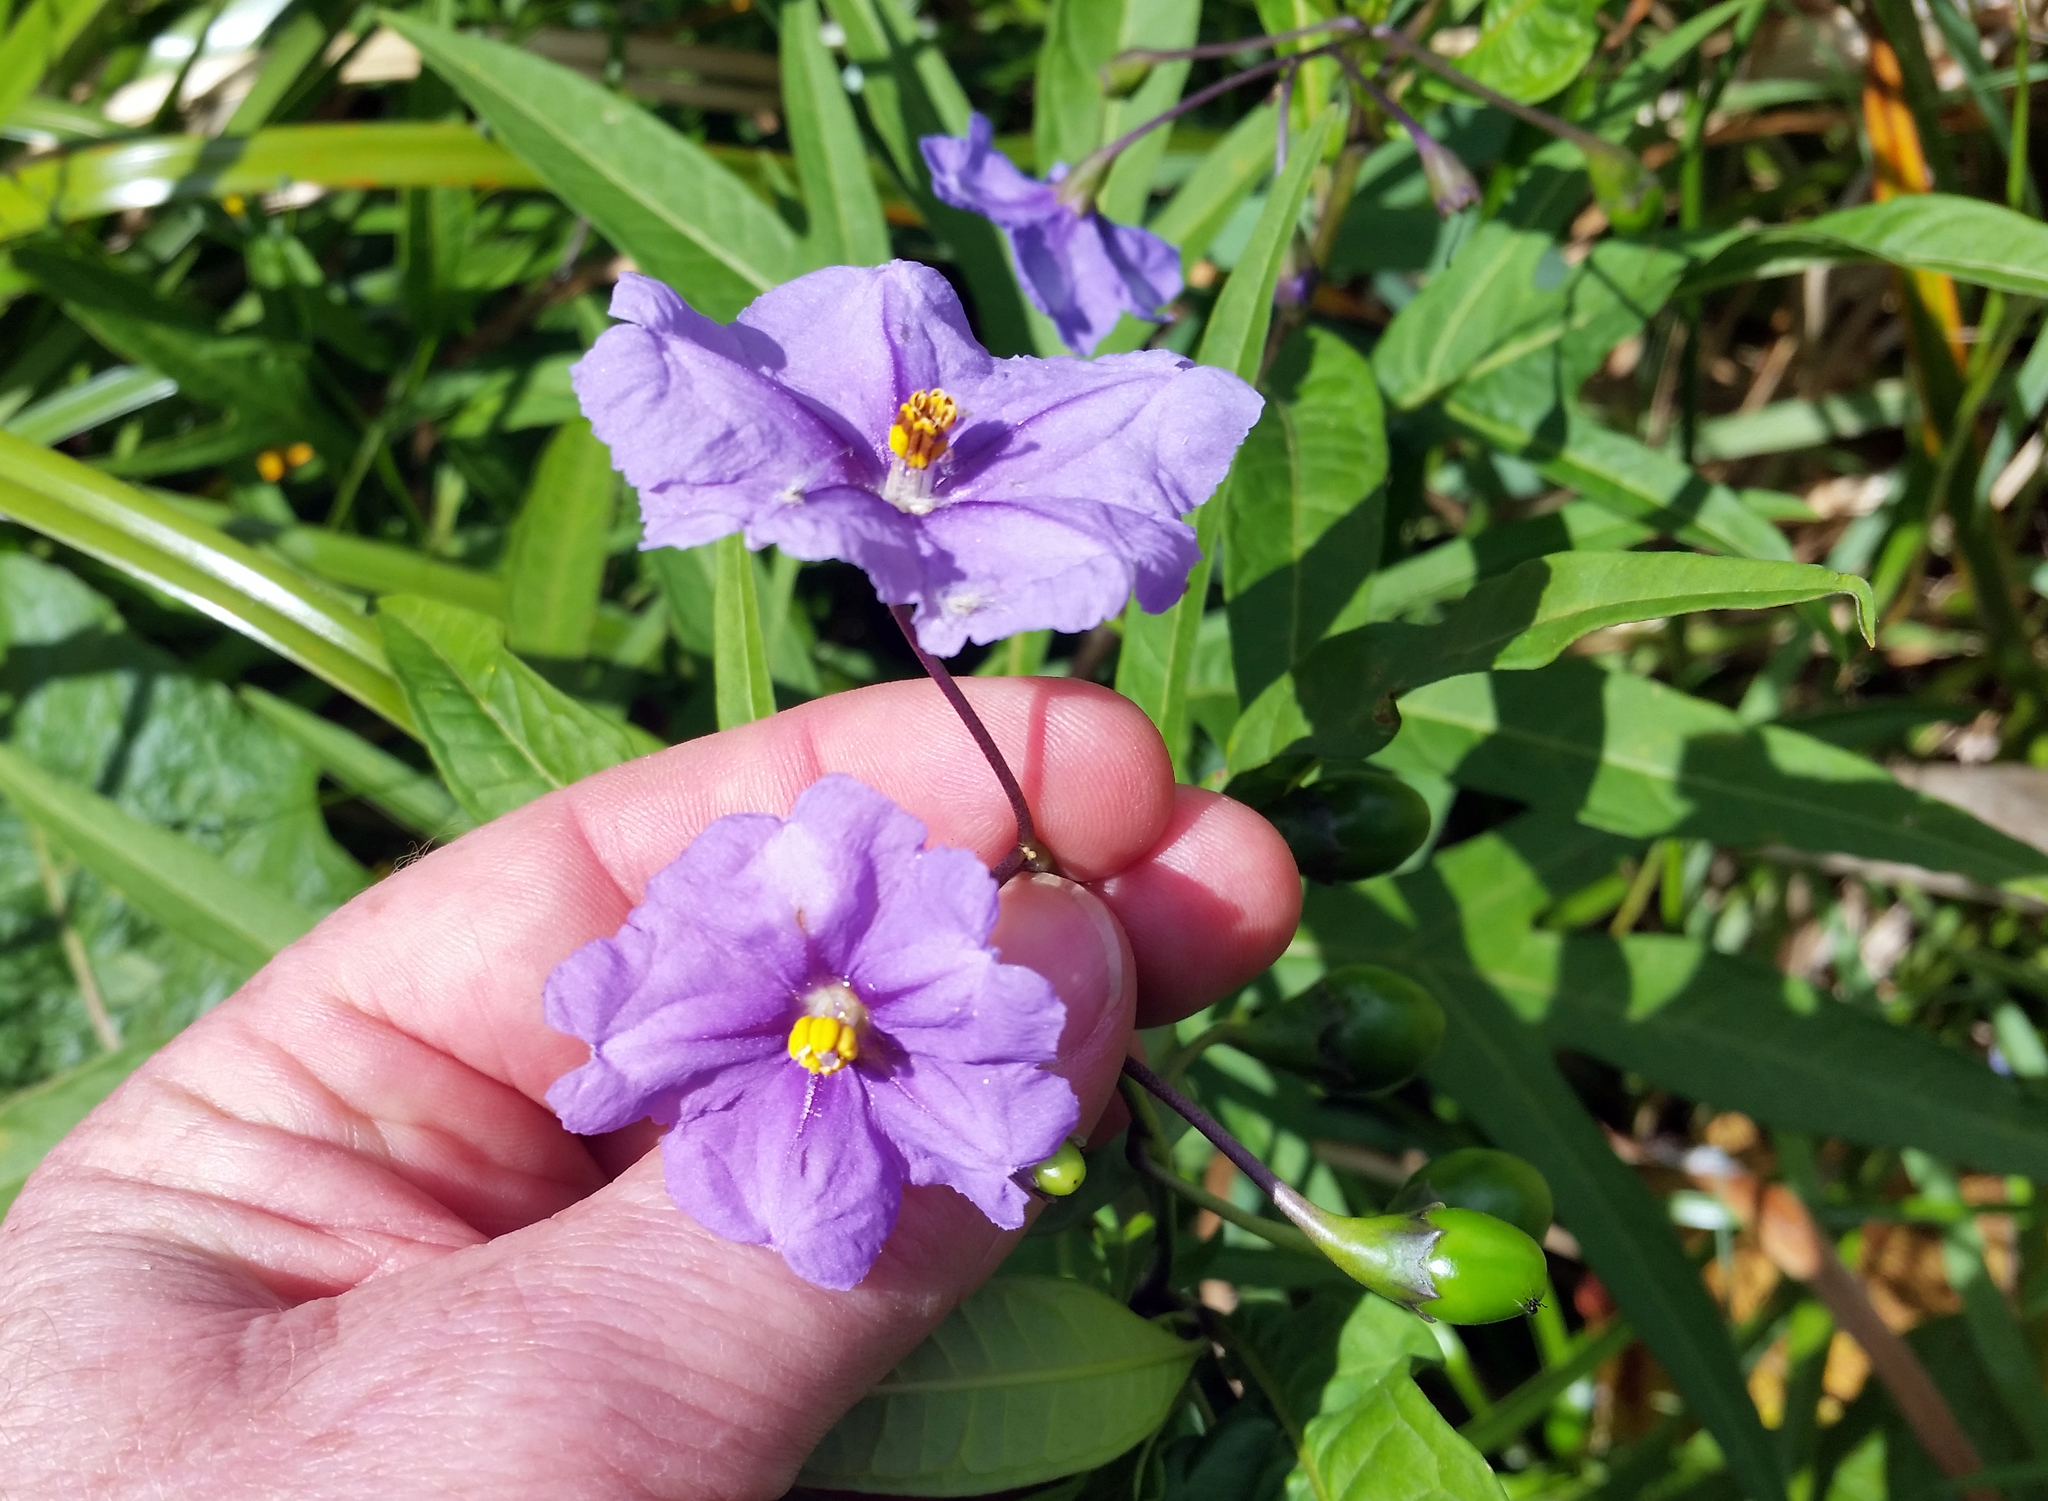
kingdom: Plantae
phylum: Tracheophyta
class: Magnoliopsida
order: Solanales
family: Solanaceae
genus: Solanum
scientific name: Solanum laciniatum
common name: Kangaroo-apple
